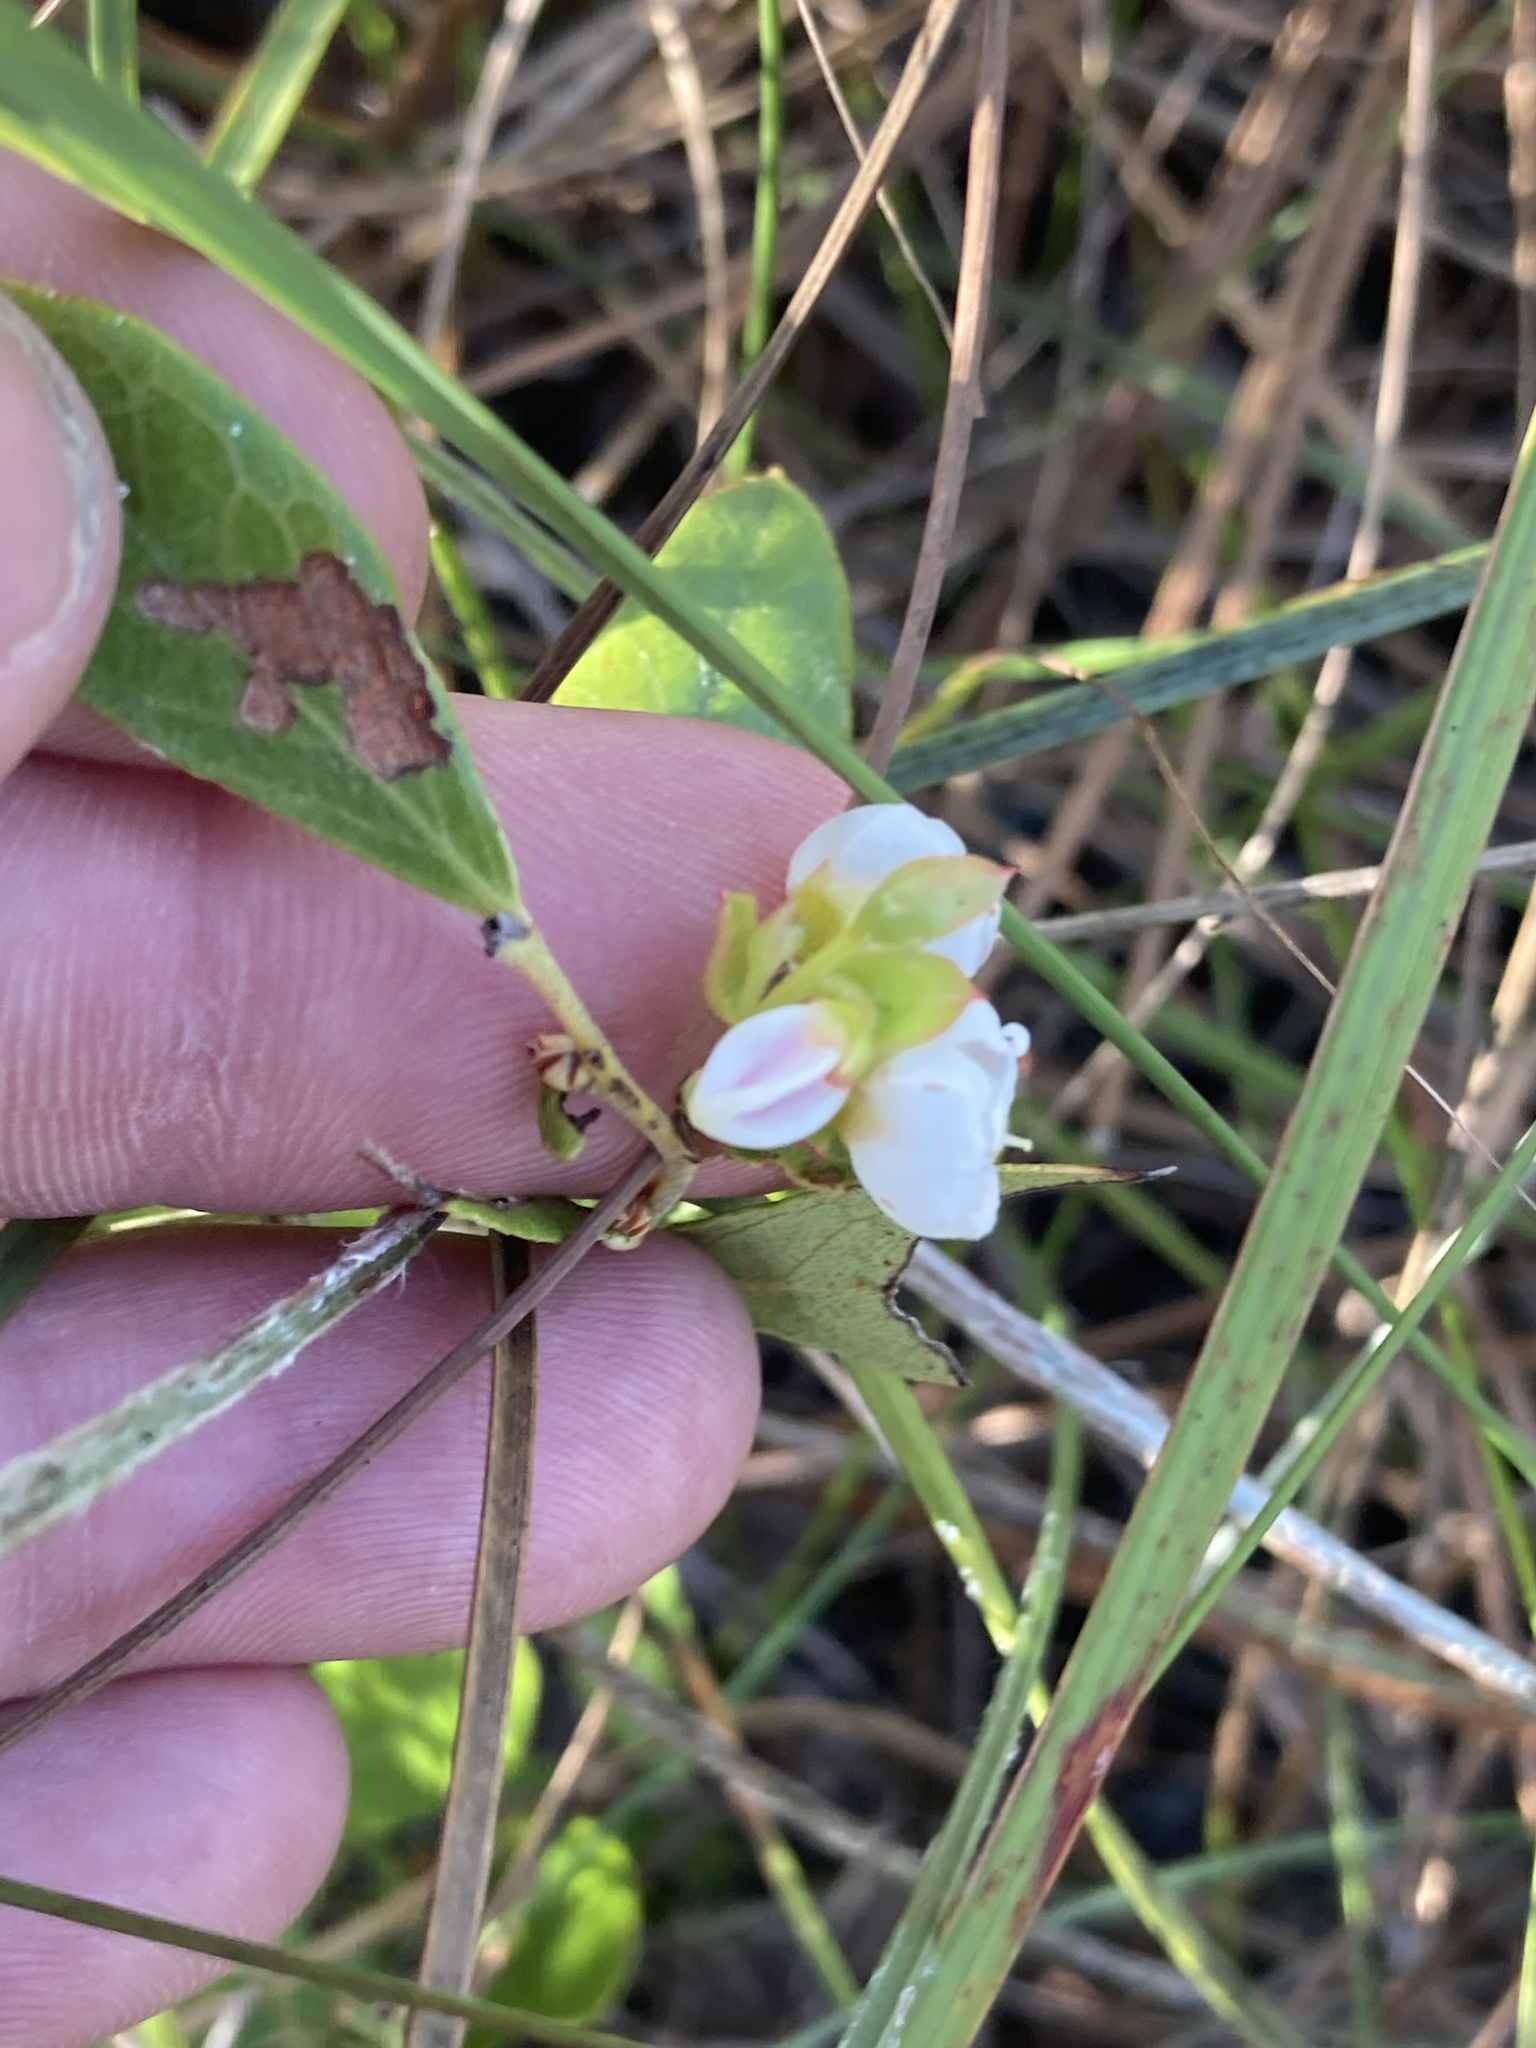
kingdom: Plantae
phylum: Tracheophyta
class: Magnoliopsida
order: Ericales
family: Ericaceae
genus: Gaylussacia
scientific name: Gaylussacia dumosa
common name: Dwarf huckleberry
